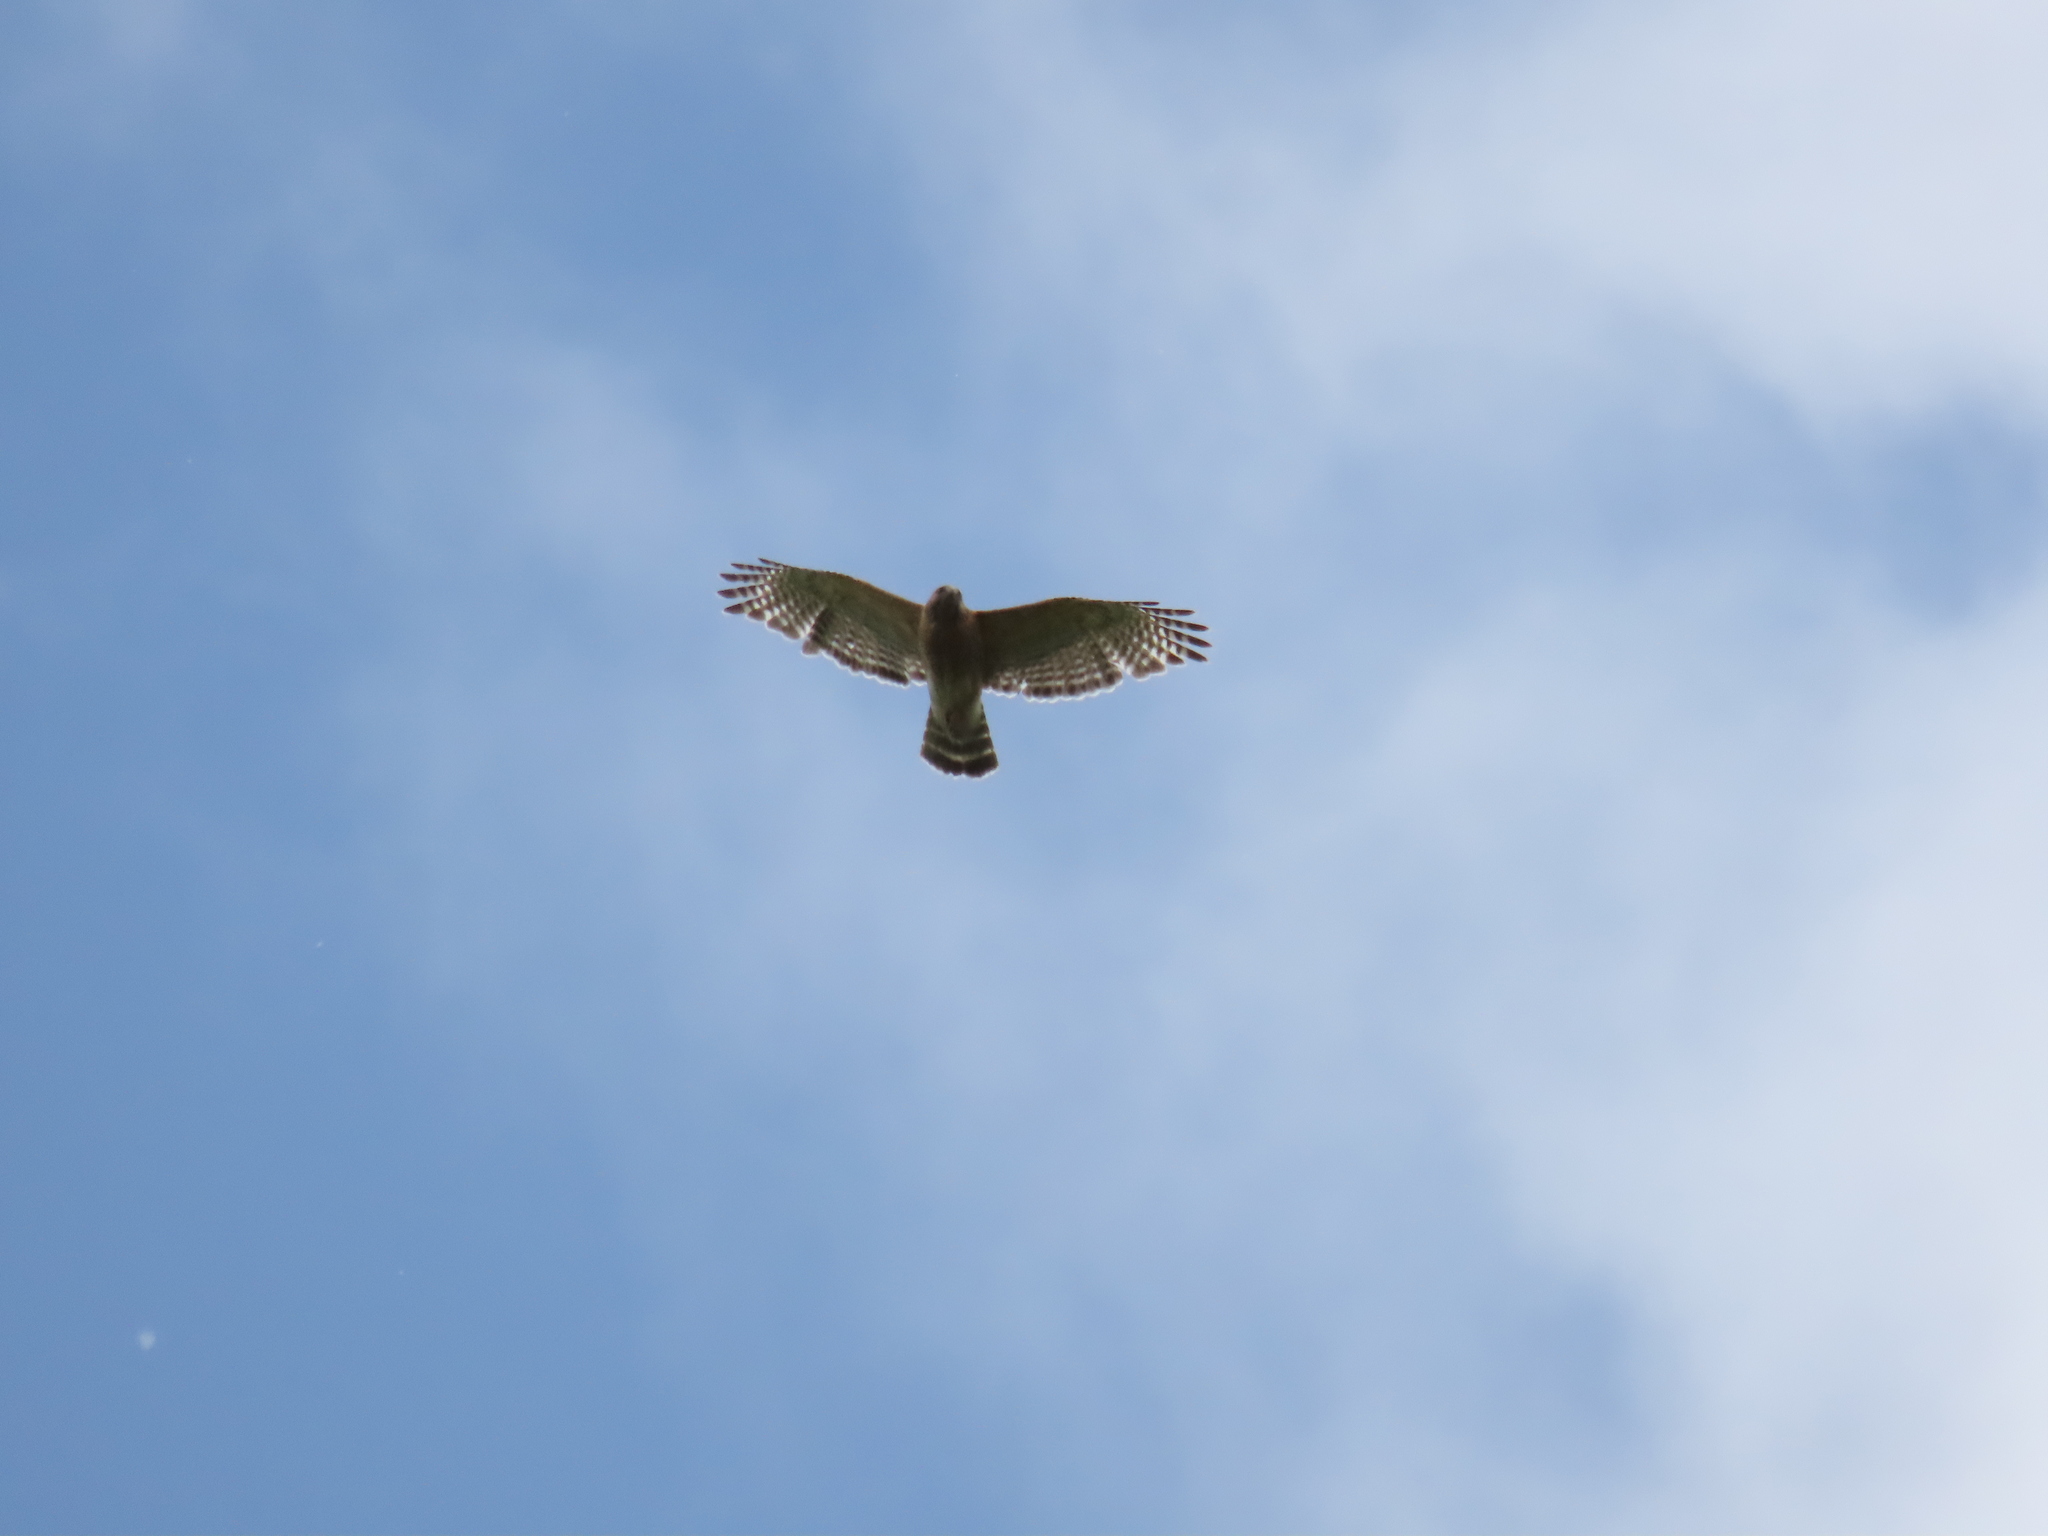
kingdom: Animalia
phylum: Chordata
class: Aves
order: Accipitriformes
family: Accipitridae
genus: Buteo
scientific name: Buteo lineatus
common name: Red-shouldered hawk
